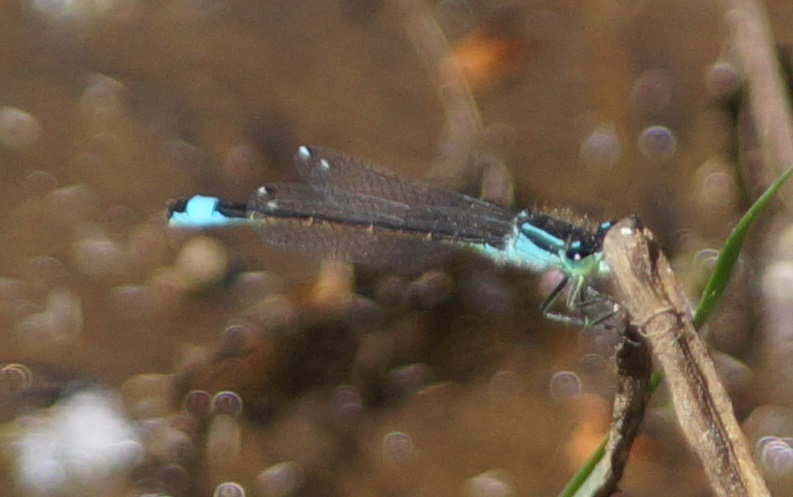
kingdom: Animalia
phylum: Arthropoda
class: Insecta
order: Odonata
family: Coenagrionidae
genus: Ischnura
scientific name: Ischnura elegans
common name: Blue-tailed damselfly
